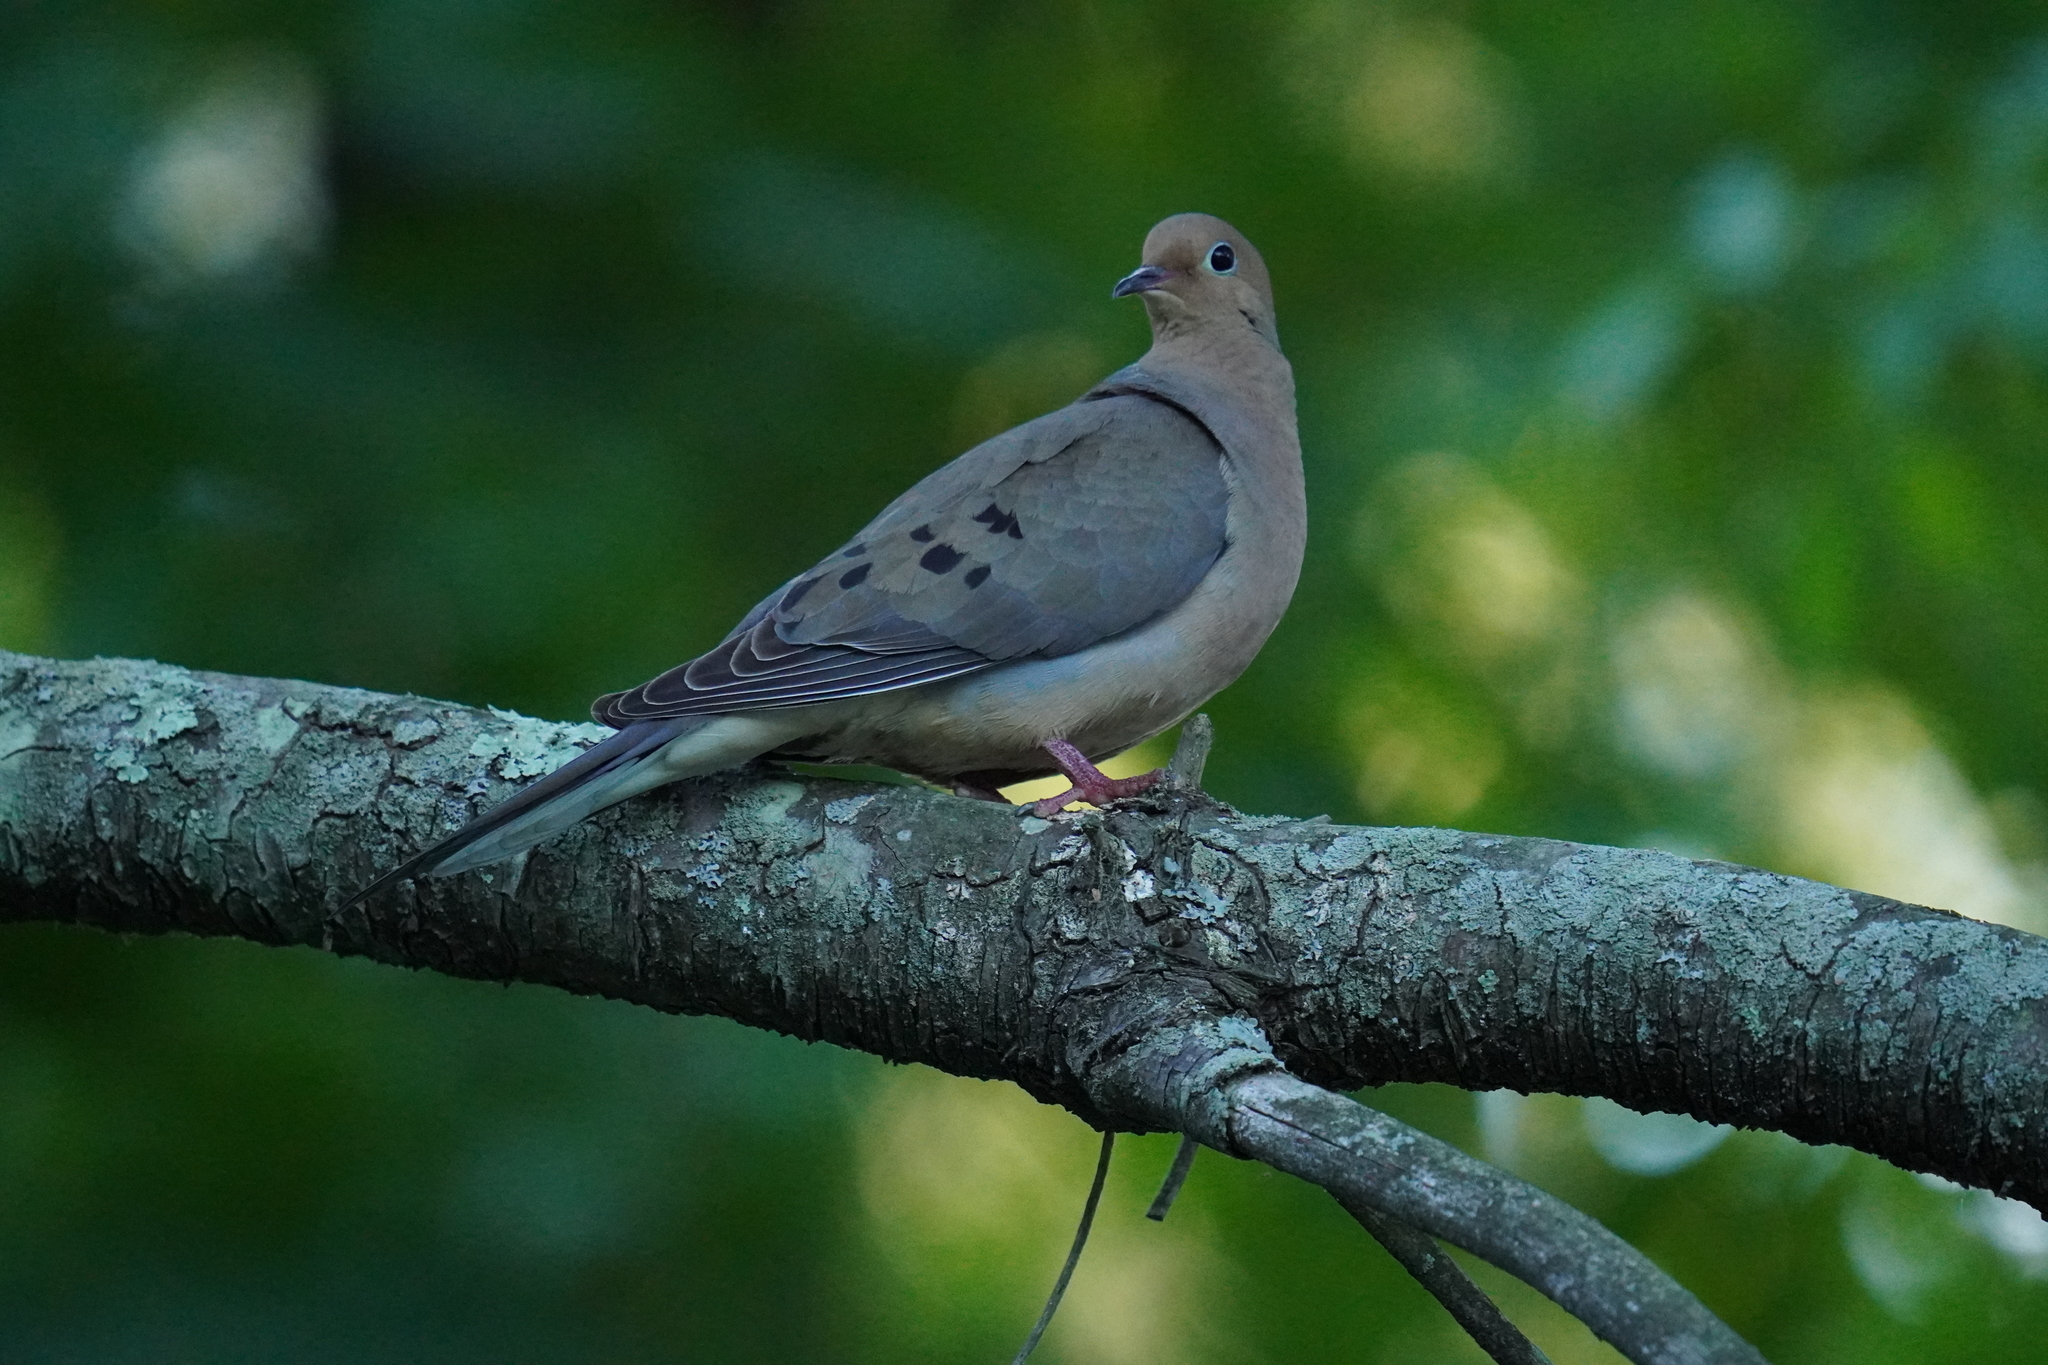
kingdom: Animalia
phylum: Chordata
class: Aves
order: Columbiformes
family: Columbidae
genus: Zenaida
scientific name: Zenaida macroura
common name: Mourning dove
